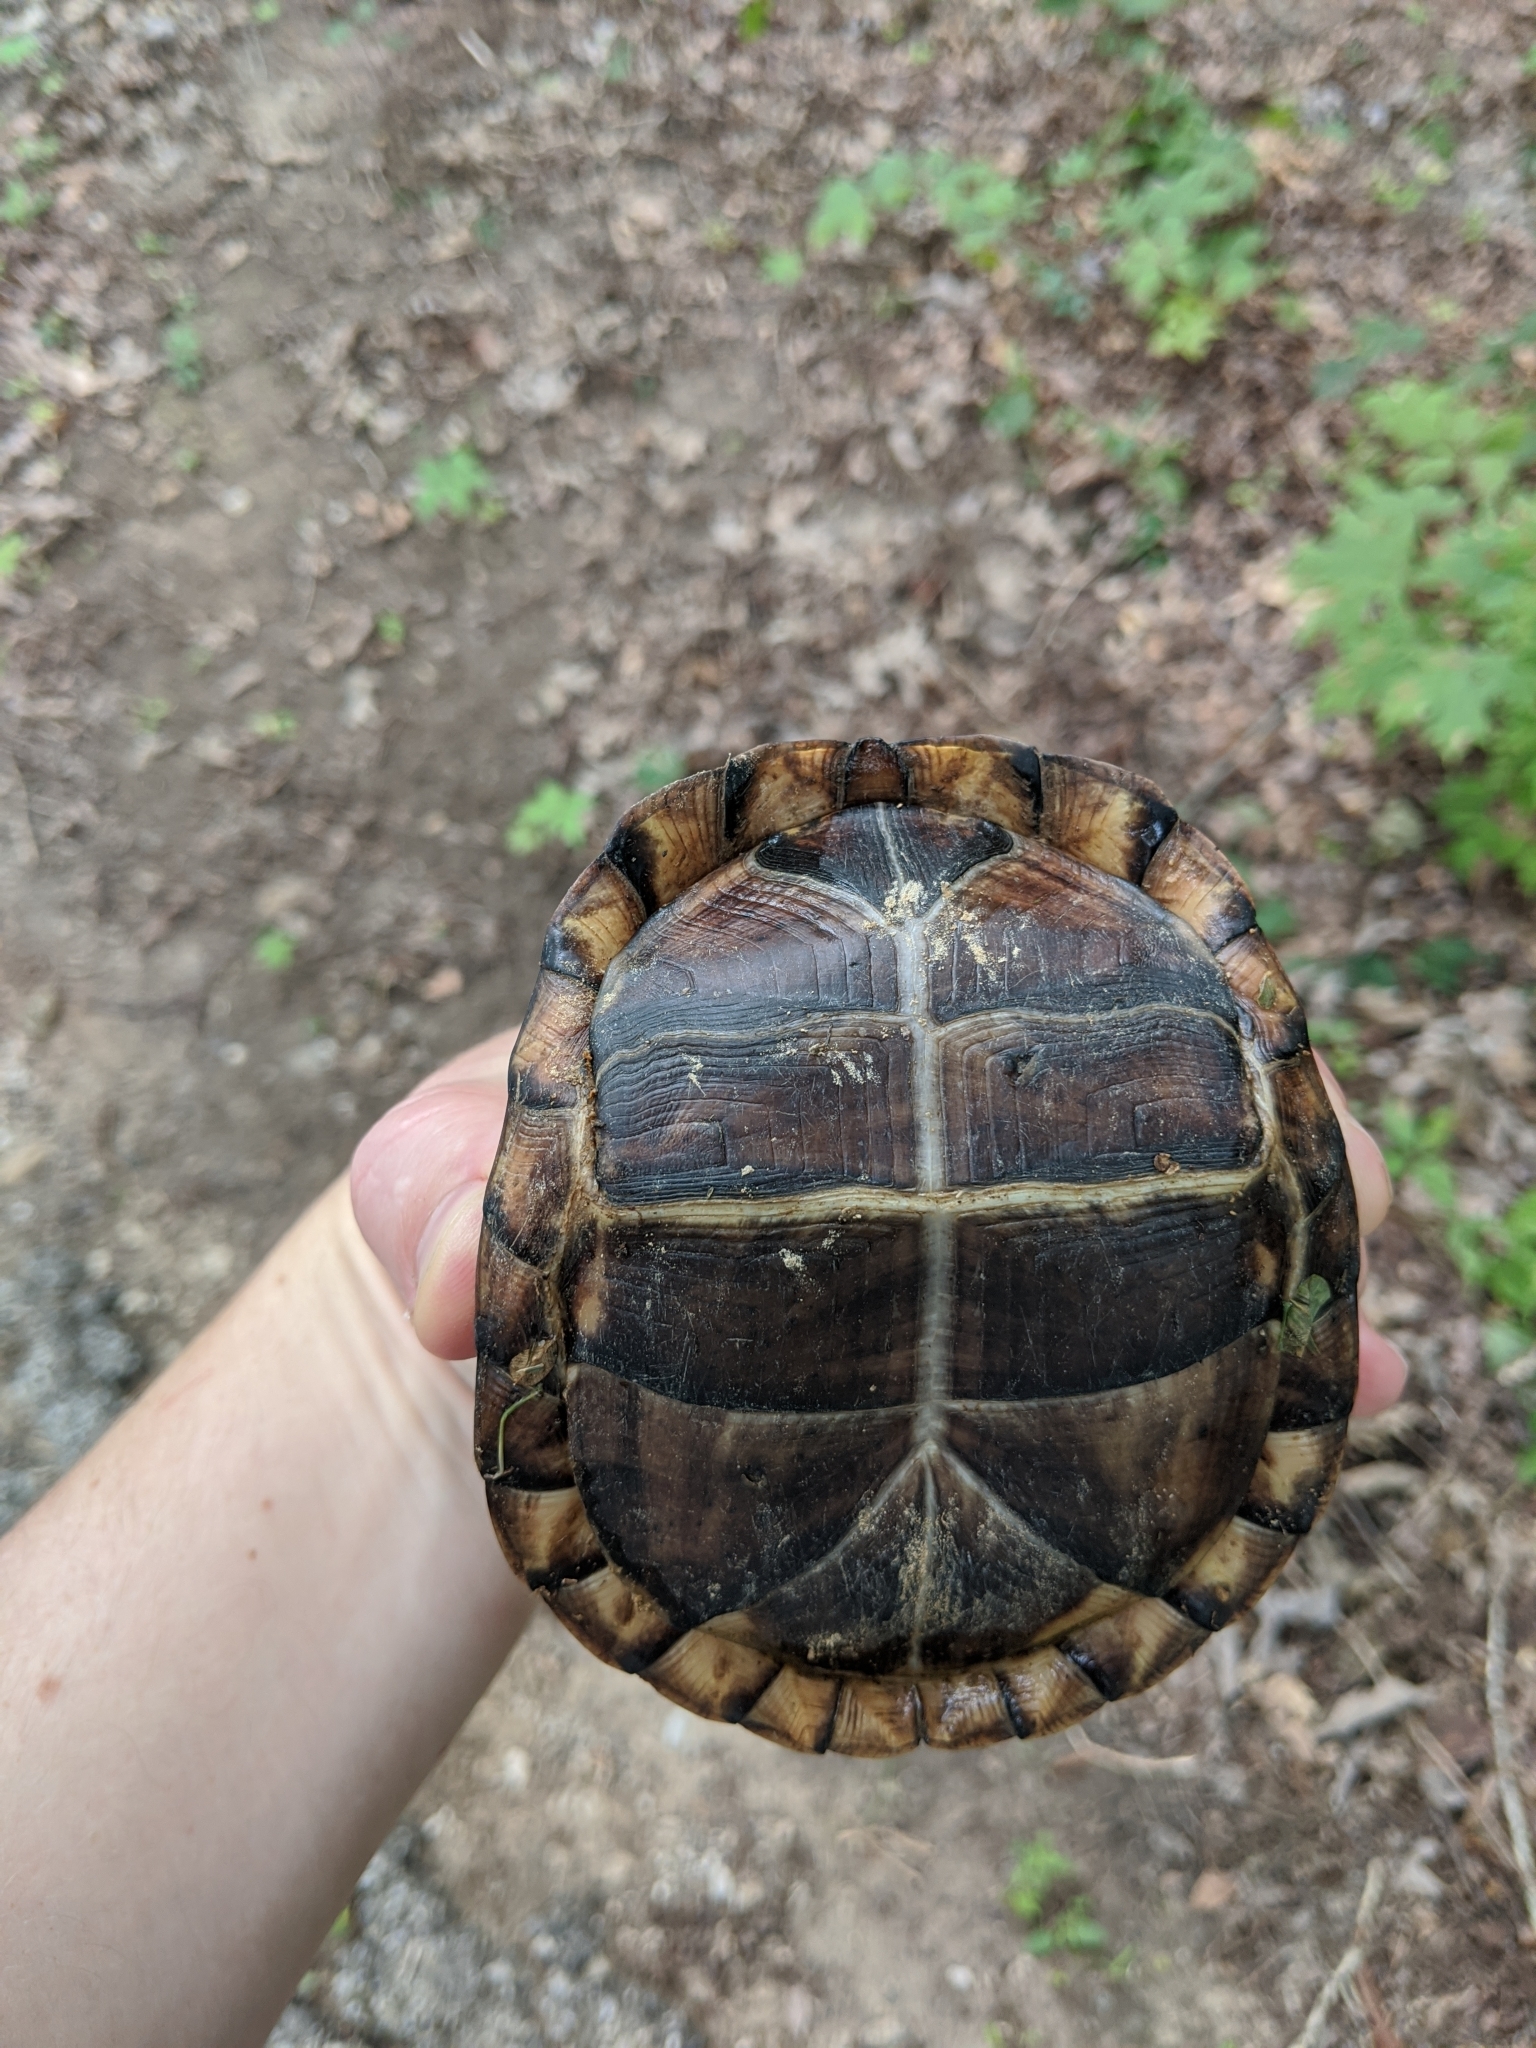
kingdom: Animalia
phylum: Chordata
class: Testudines
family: Emydidae
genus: Terrapene
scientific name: Terrapene carolina
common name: Common box turtle
